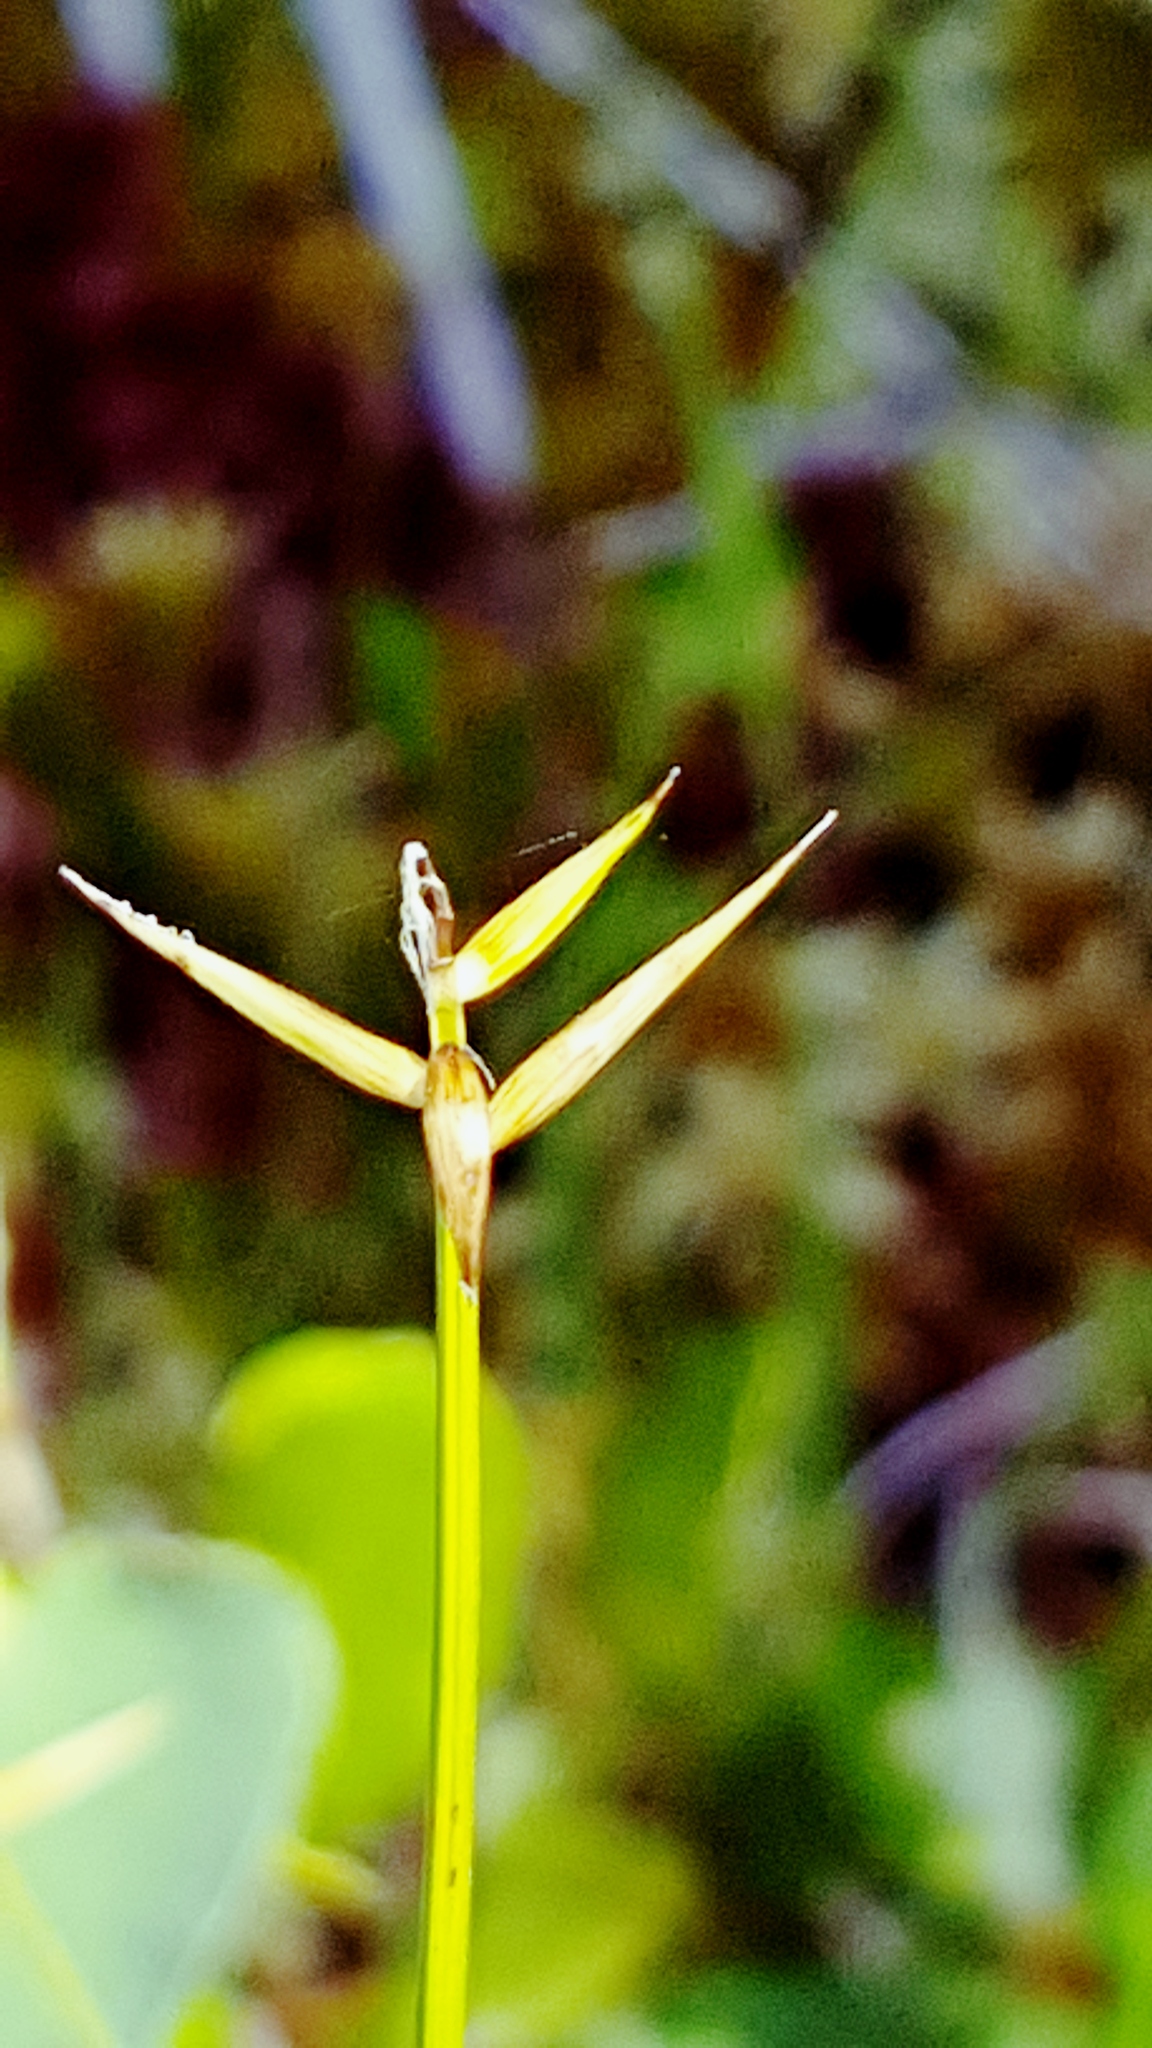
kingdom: Plantae
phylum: Tracheophyta
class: Liliopsida
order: Poales
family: Cyperaceae
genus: Carex
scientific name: Carex pauciflora
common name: Few-flowered sedge
